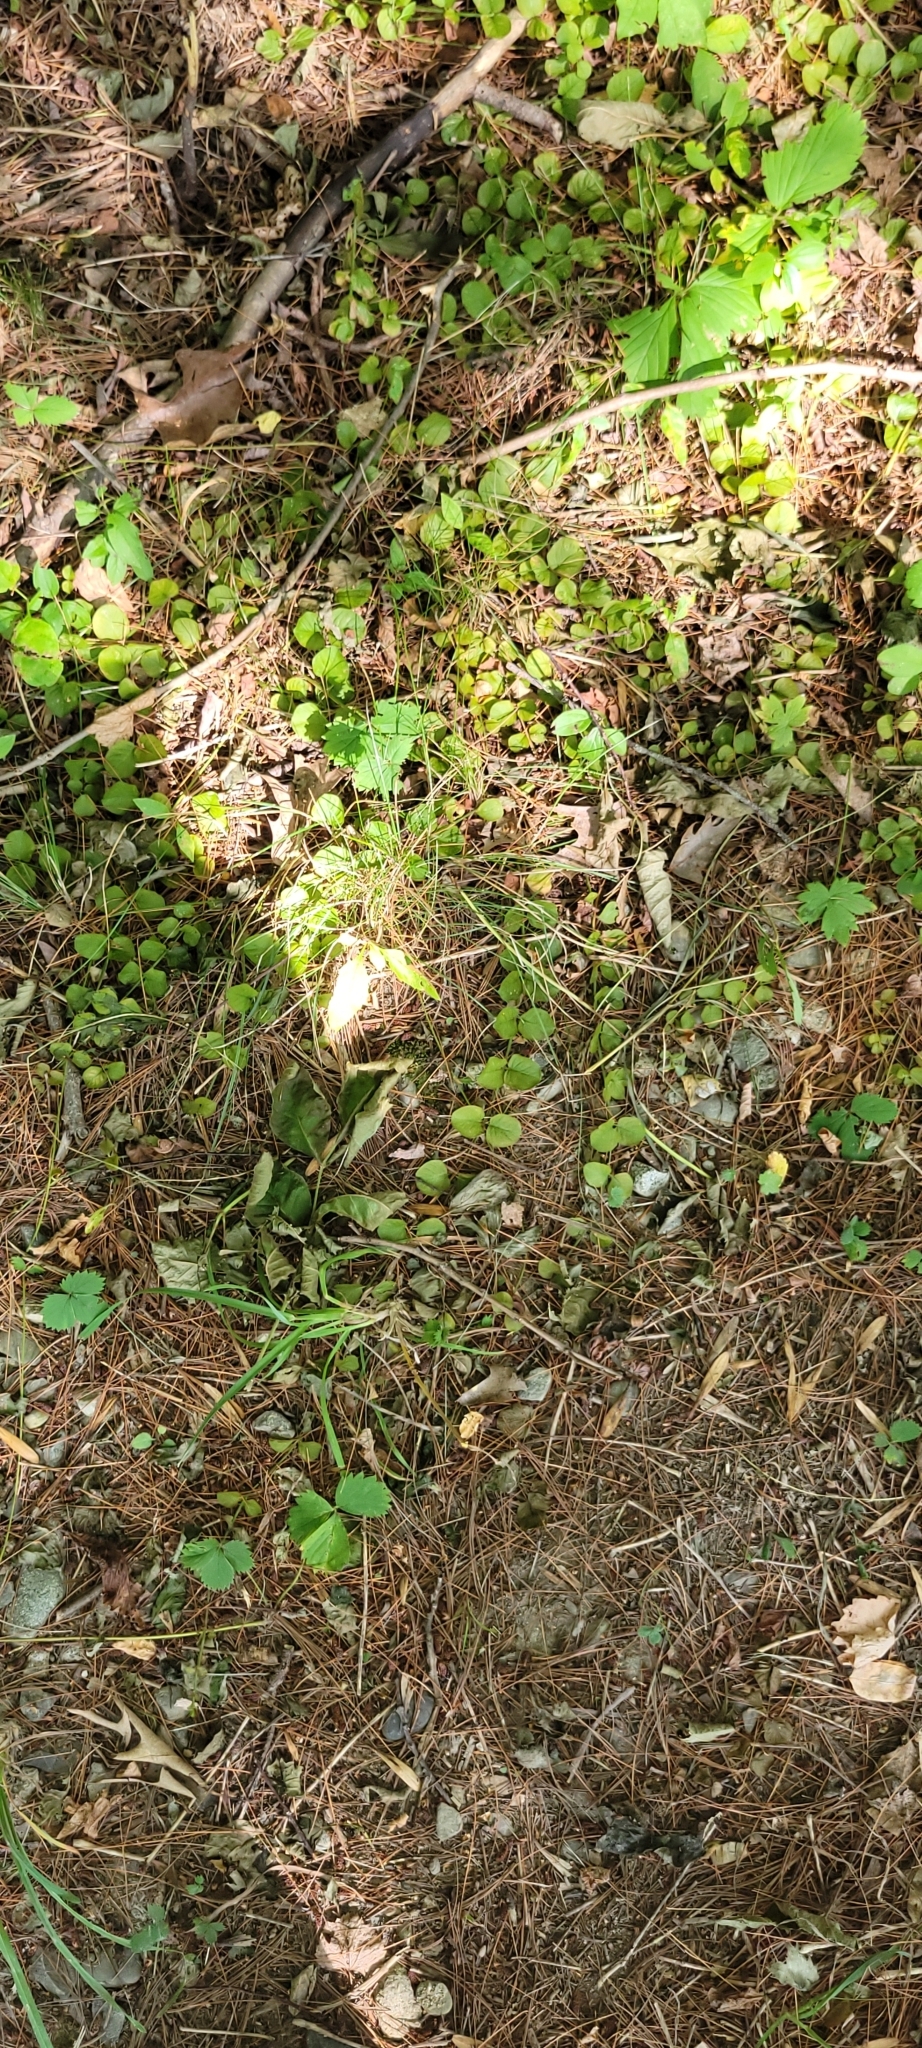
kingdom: Plantae
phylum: Tracheophyta
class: Magnoliopsida
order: Ericales
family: Primulaceae
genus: Lysimachia
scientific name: Lysimachia nummularia
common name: Moneywort
